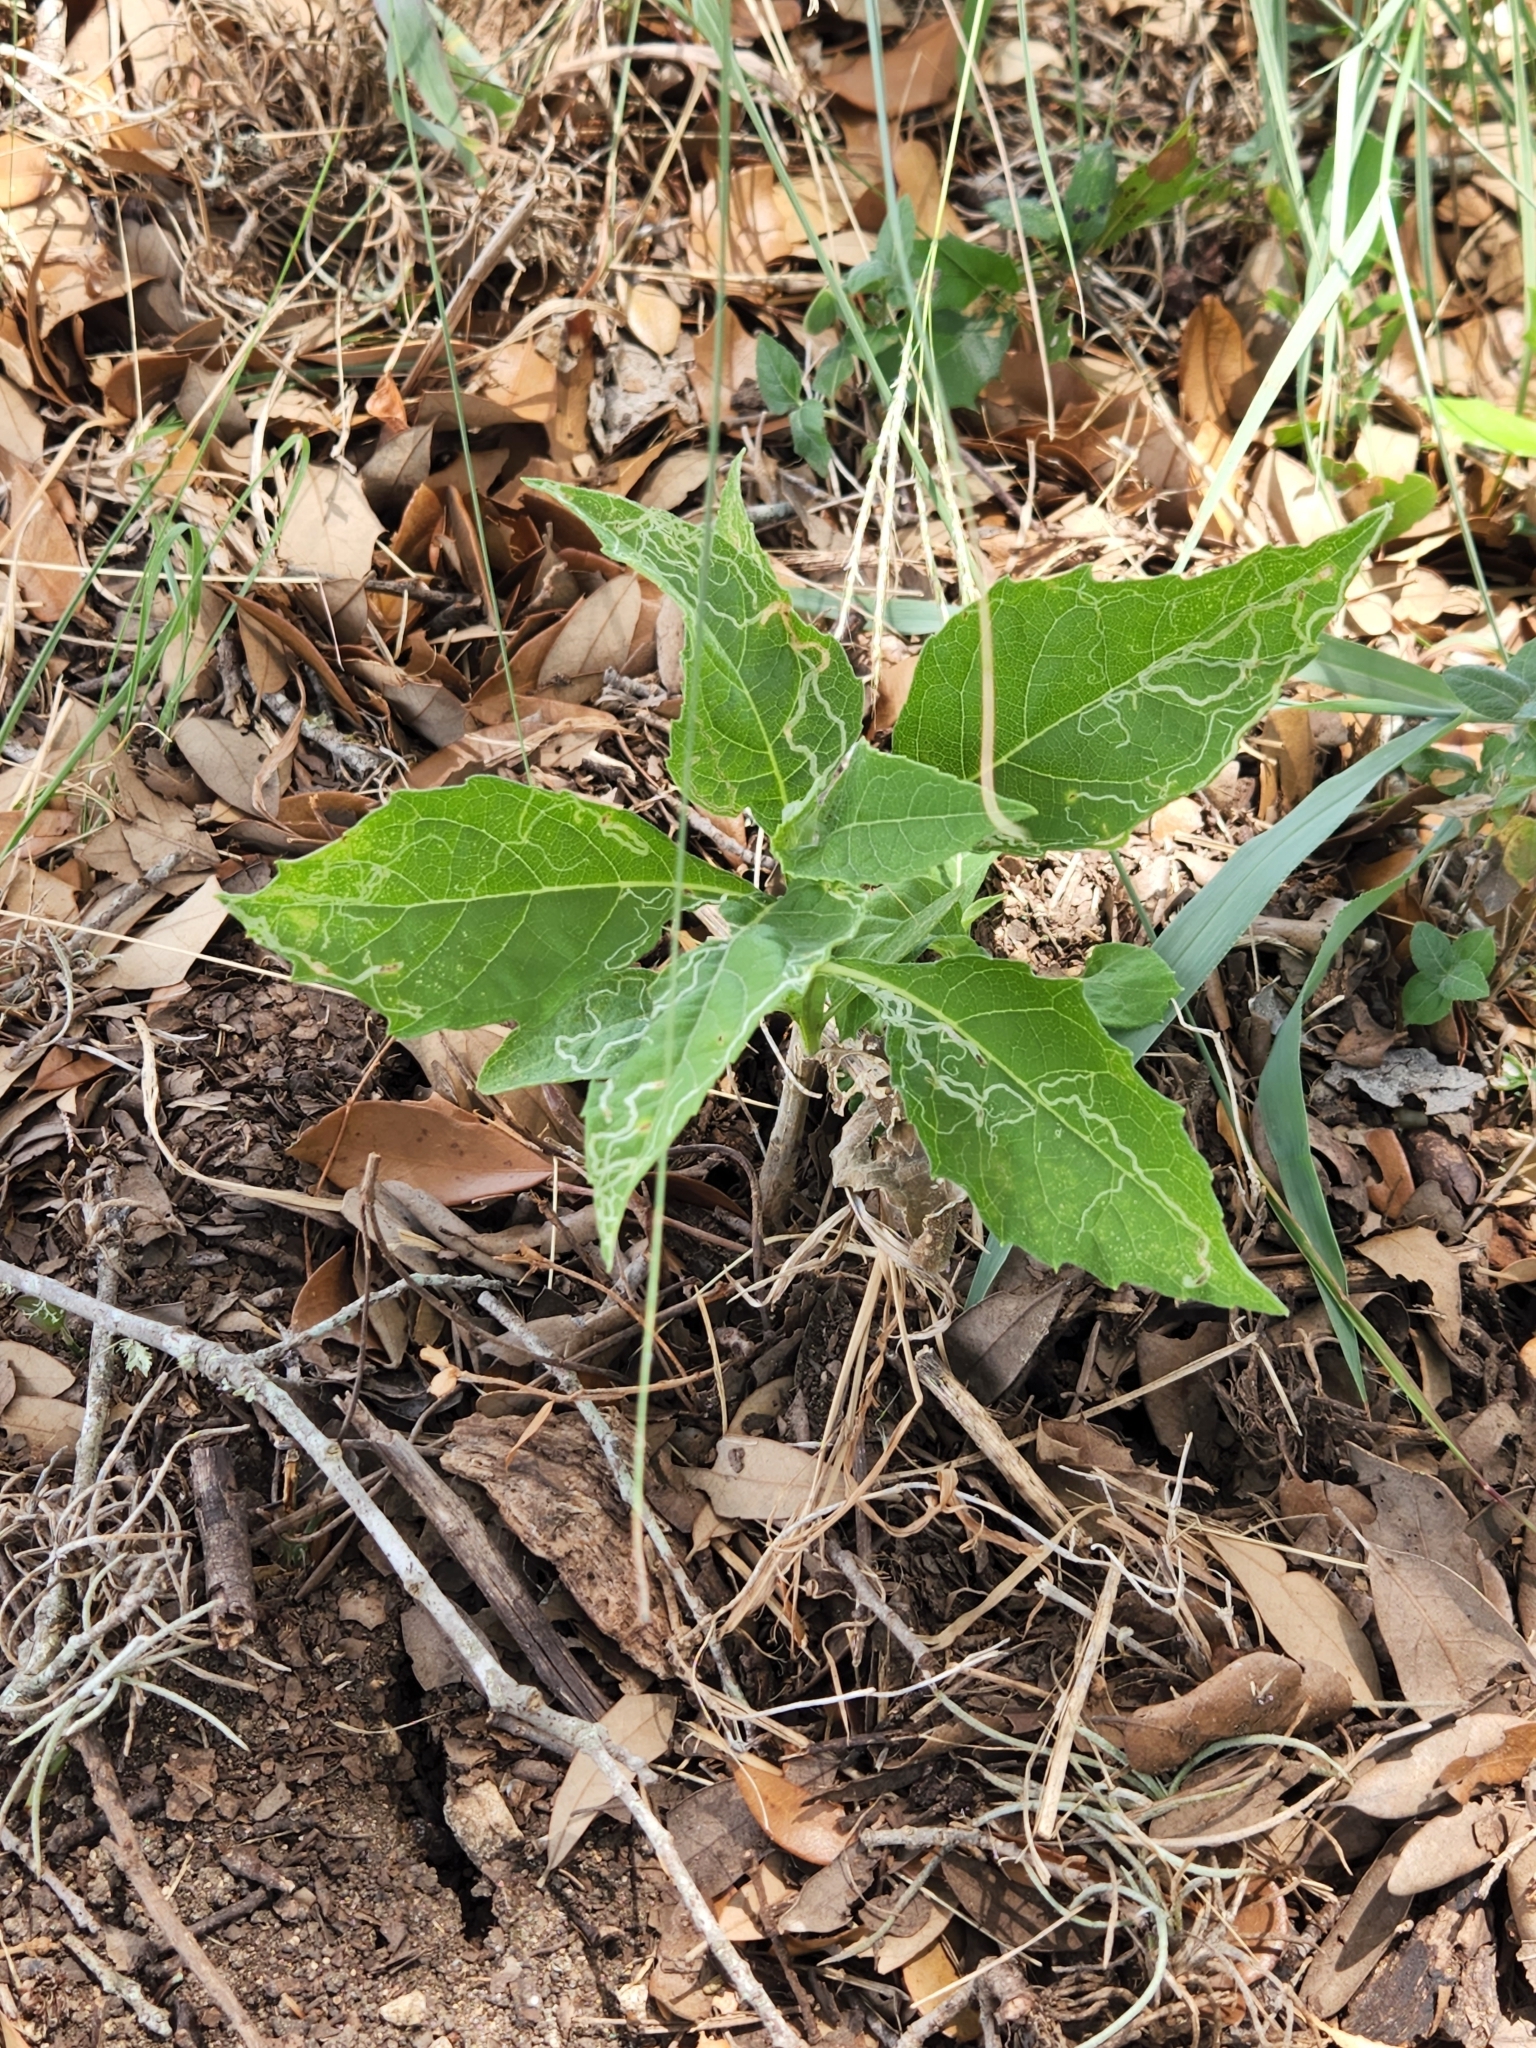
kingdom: Plantae
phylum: Tracheophyta
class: Magnoliopsida
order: Asterales
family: Asteraceae
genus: Verbesina
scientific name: Verbesina virginica
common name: Frostweed
